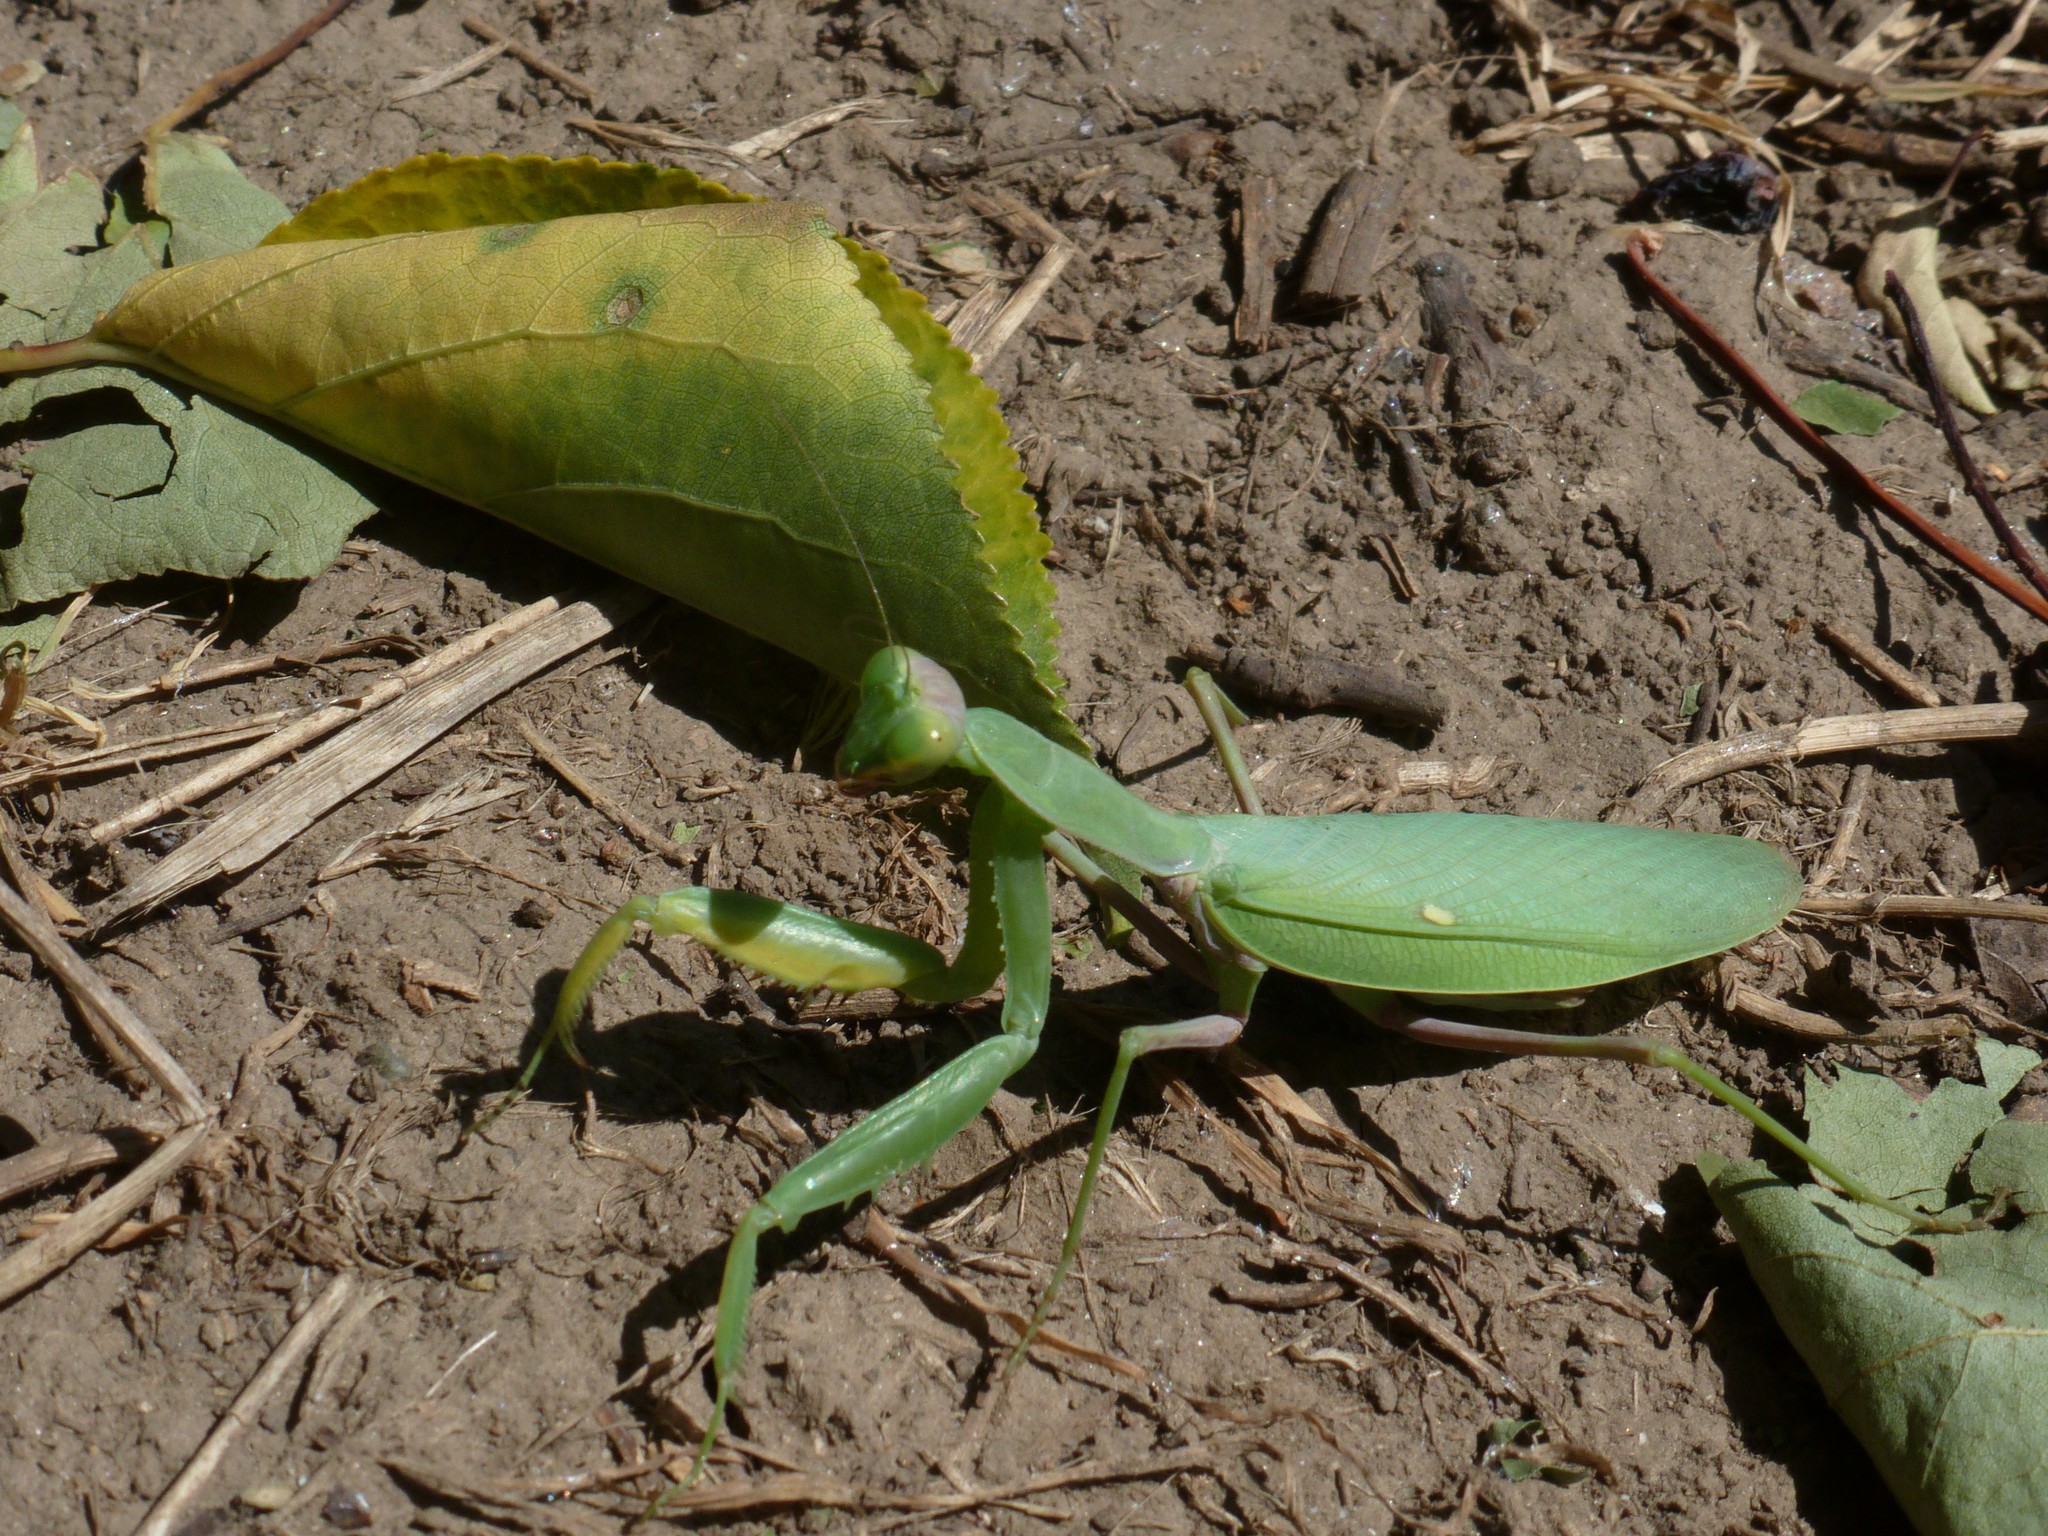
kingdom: Animalia
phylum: Arthropoda
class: Insecta
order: Mantodea
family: Mantidae
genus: Hierodula
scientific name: Hierodula transcaucasica
